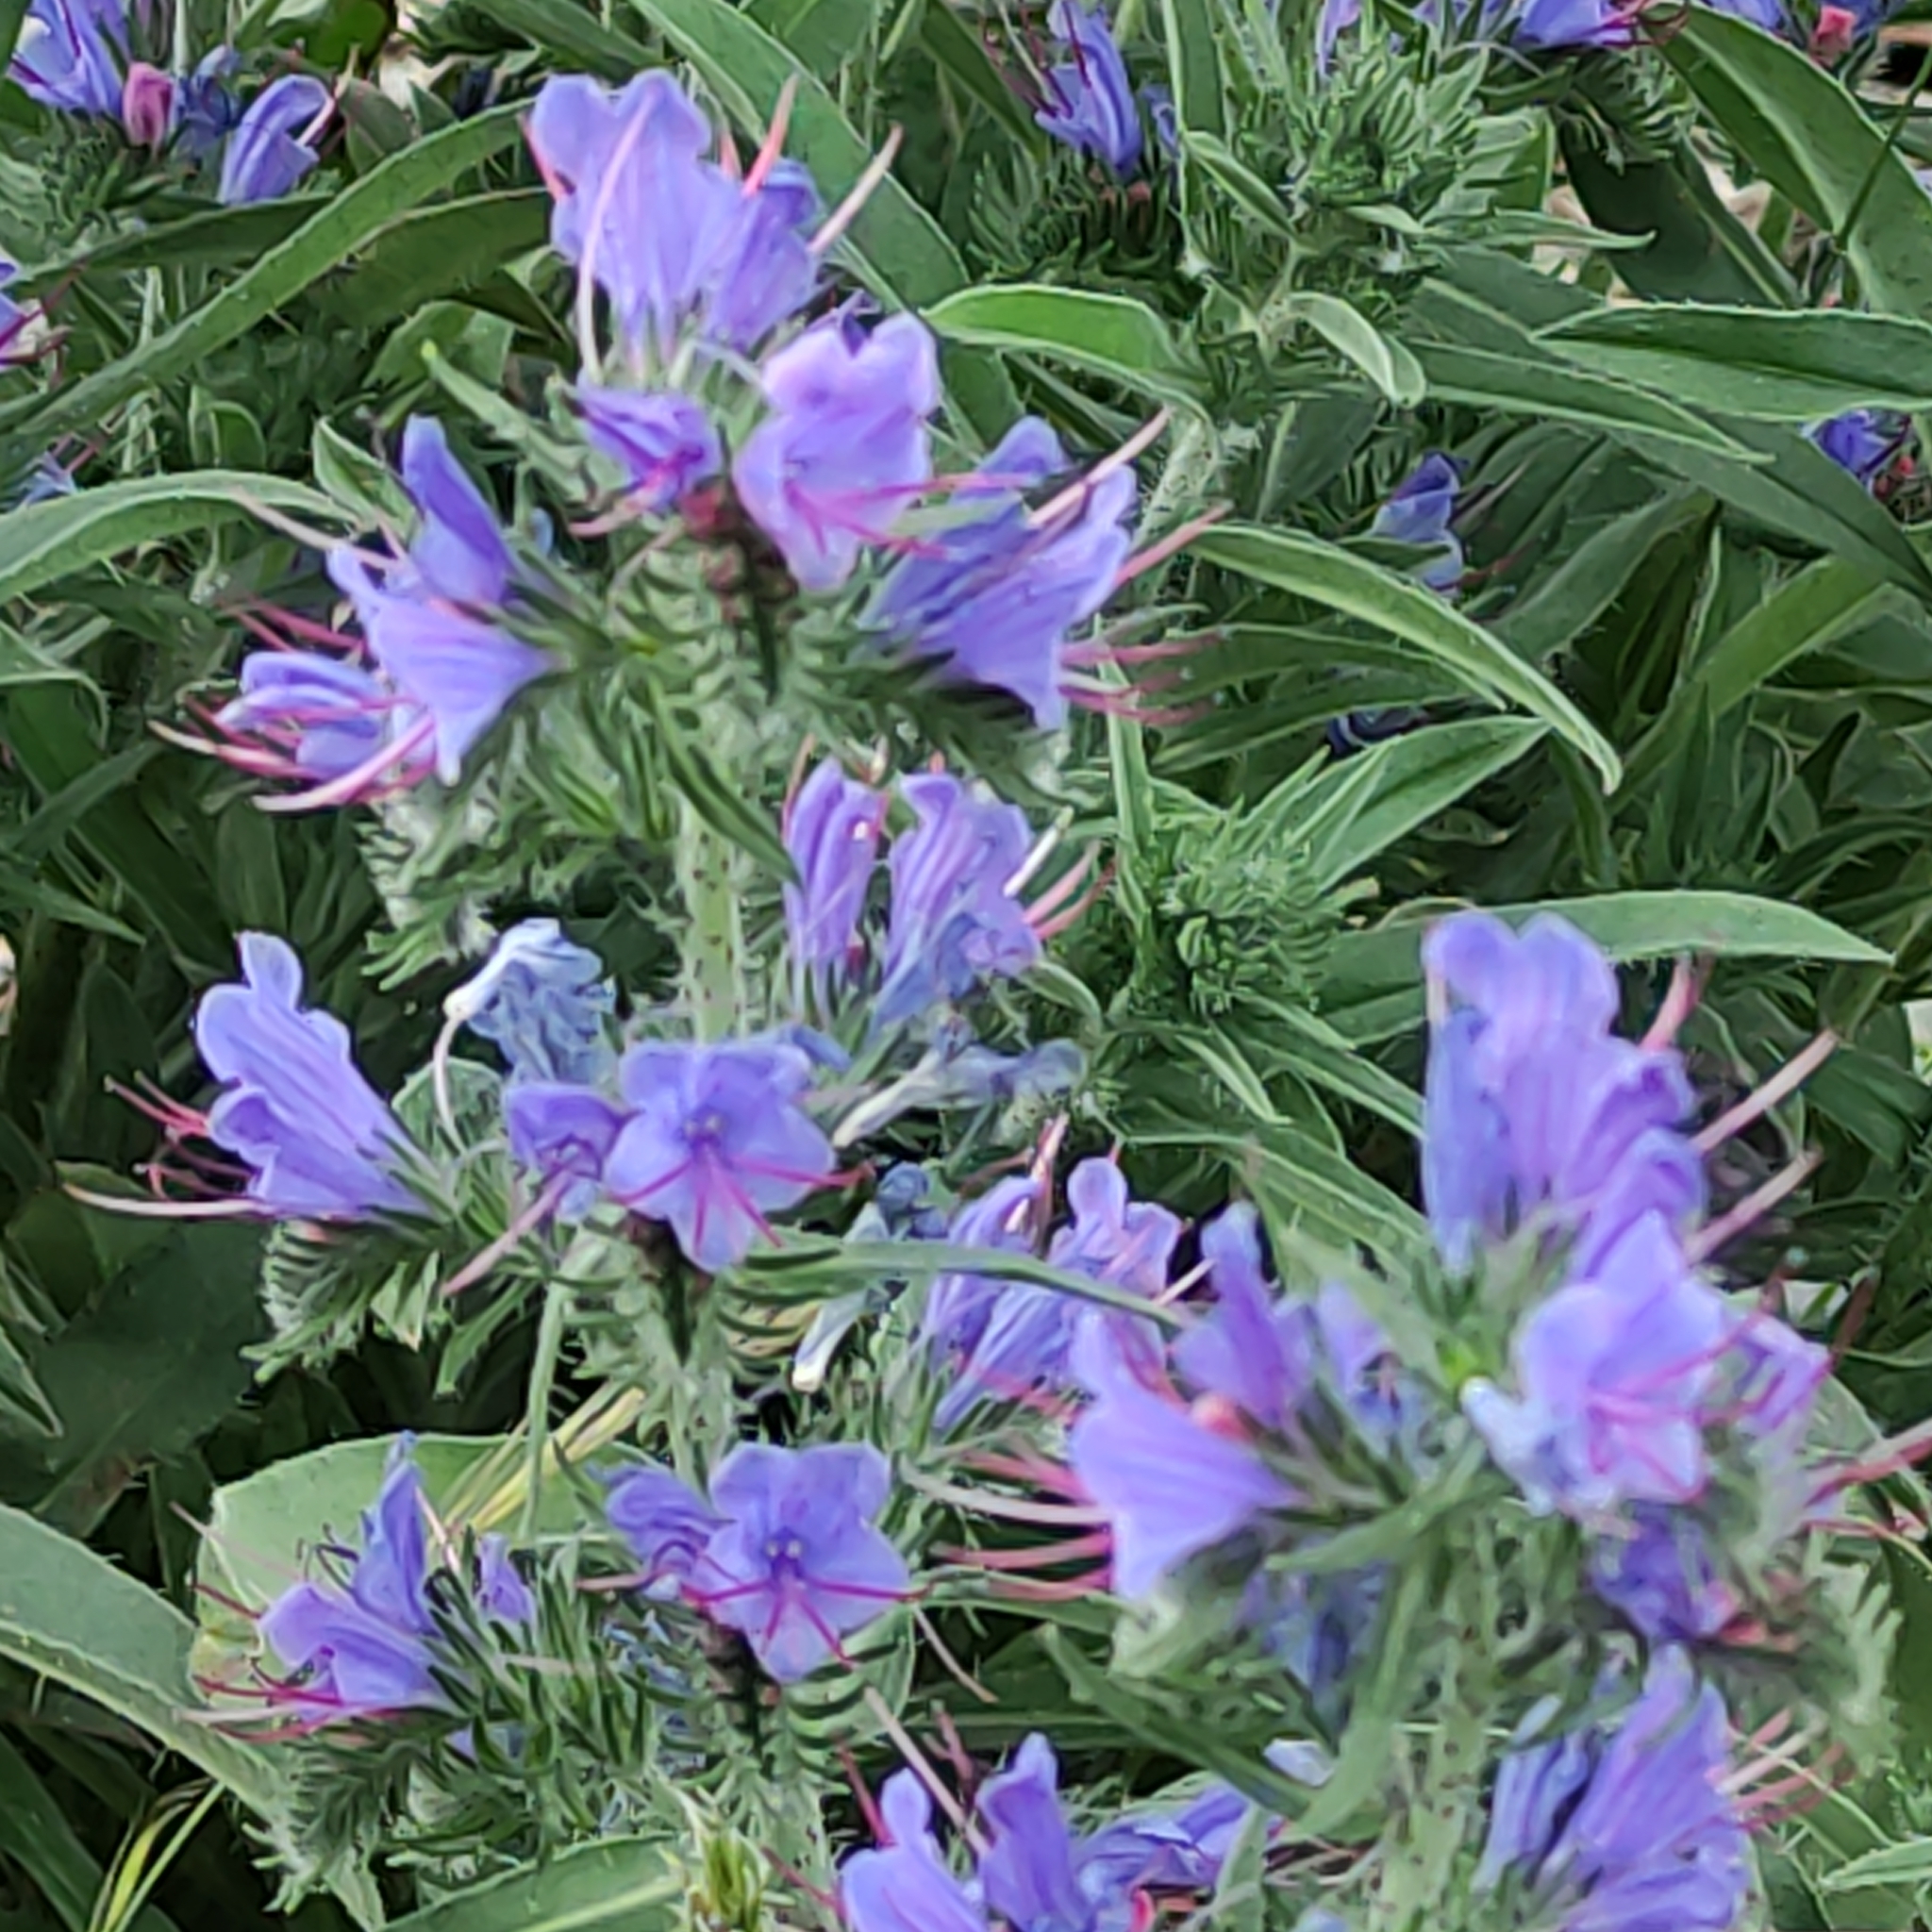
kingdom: Plantae
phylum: Tracheophyta
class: Magnoliopsida
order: Boraginales
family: Boraginaceae
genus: Echium
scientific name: Echium vulgare
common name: Common viper's bugloss
